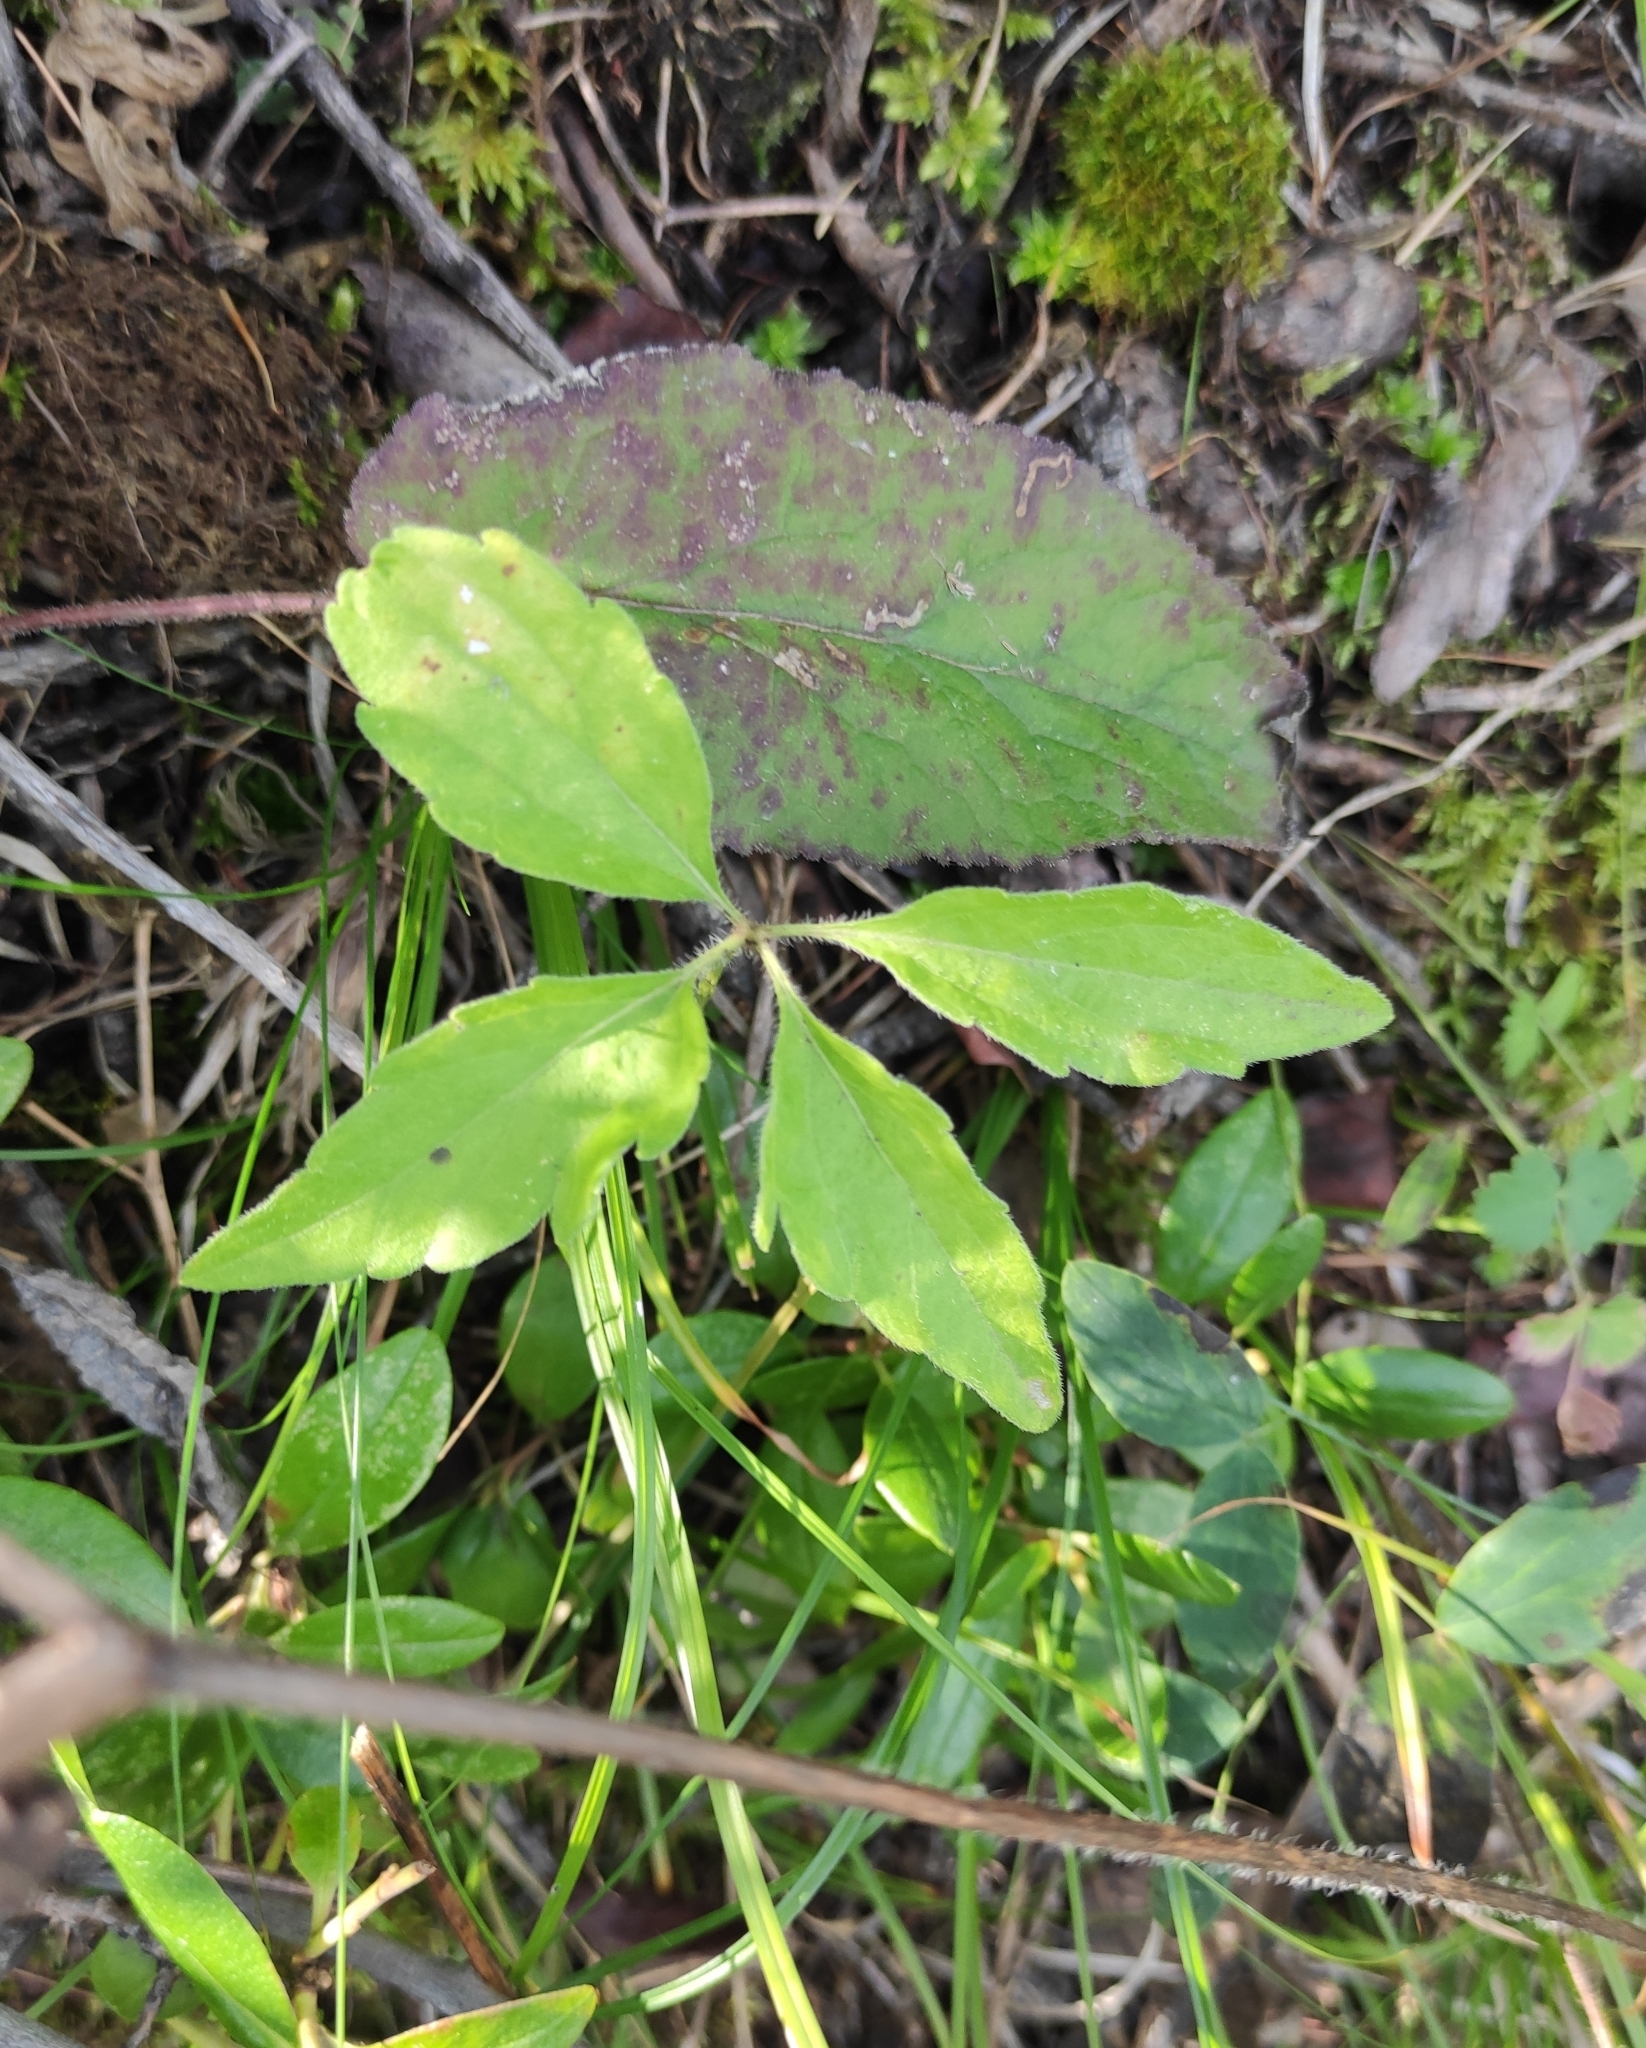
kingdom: Plantae
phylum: Tracheophyta
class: Magnoliopsida
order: Malpighiales
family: Violaceae
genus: Viola
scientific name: Viola dactyloides
